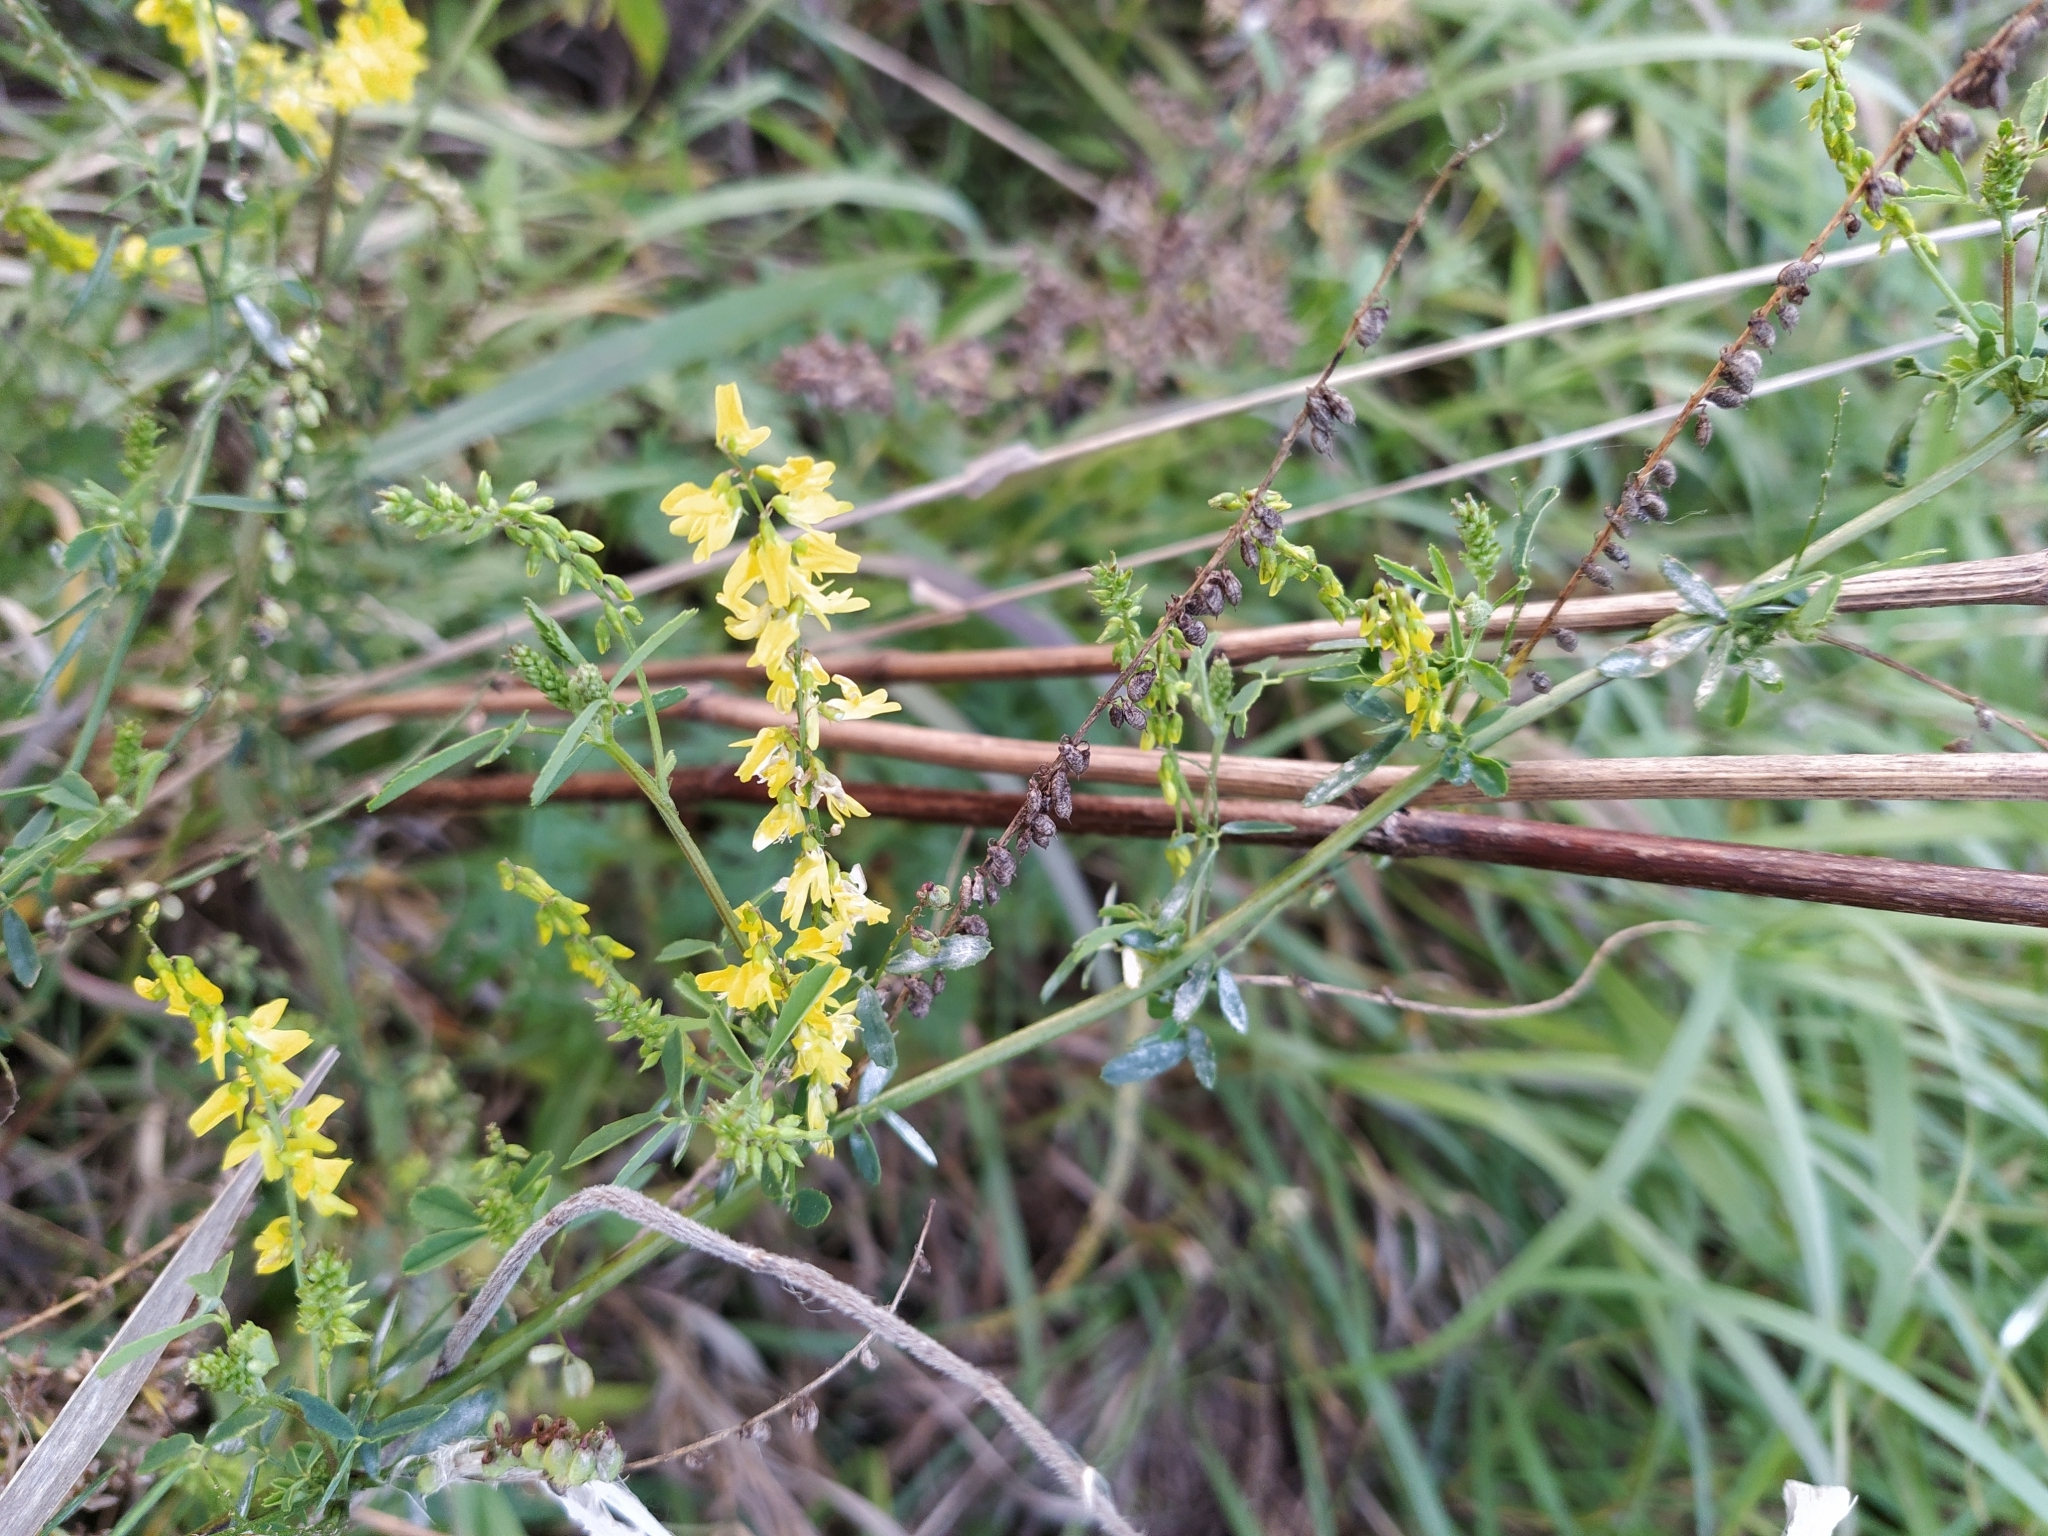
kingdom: Plantae
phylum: Tracheophyta
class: Magnoliopsida
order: Fabales
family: Fabaceae
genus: Melilotus
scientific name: Melilotus officinalis
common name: Sweetclover
